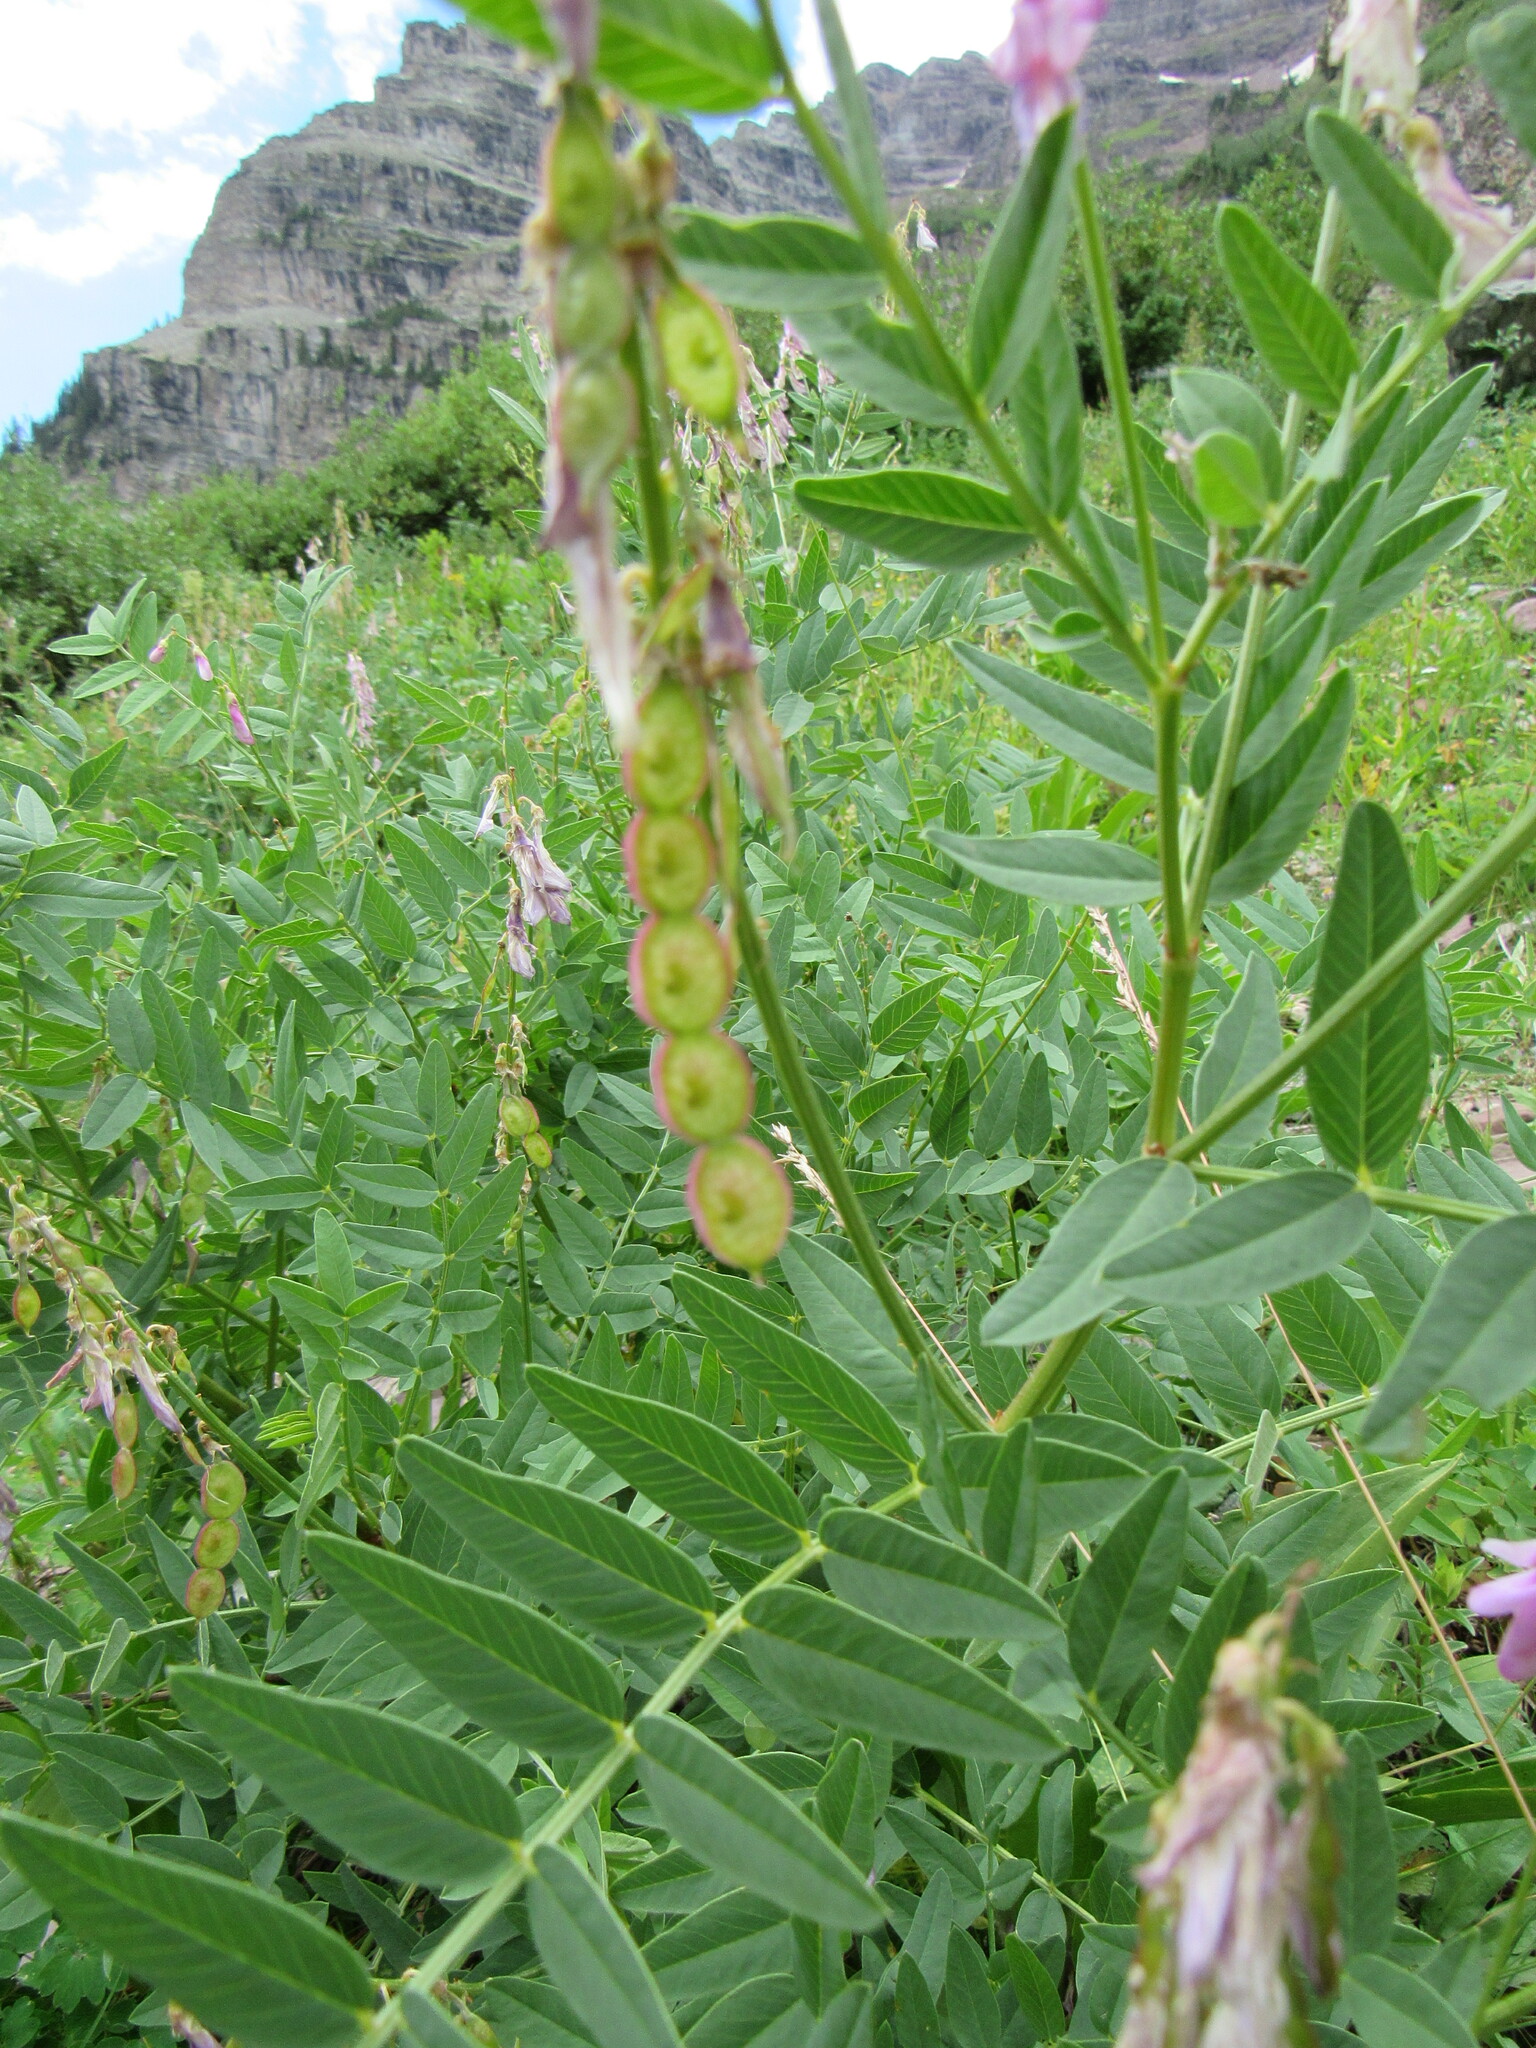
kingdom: Plantae
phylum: Tracheophyta
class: Magnoliopsida
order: Fabales
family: Fabaceae
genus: Hedysarum
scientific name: Hedysarum occidentale
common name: Western hedysarum
